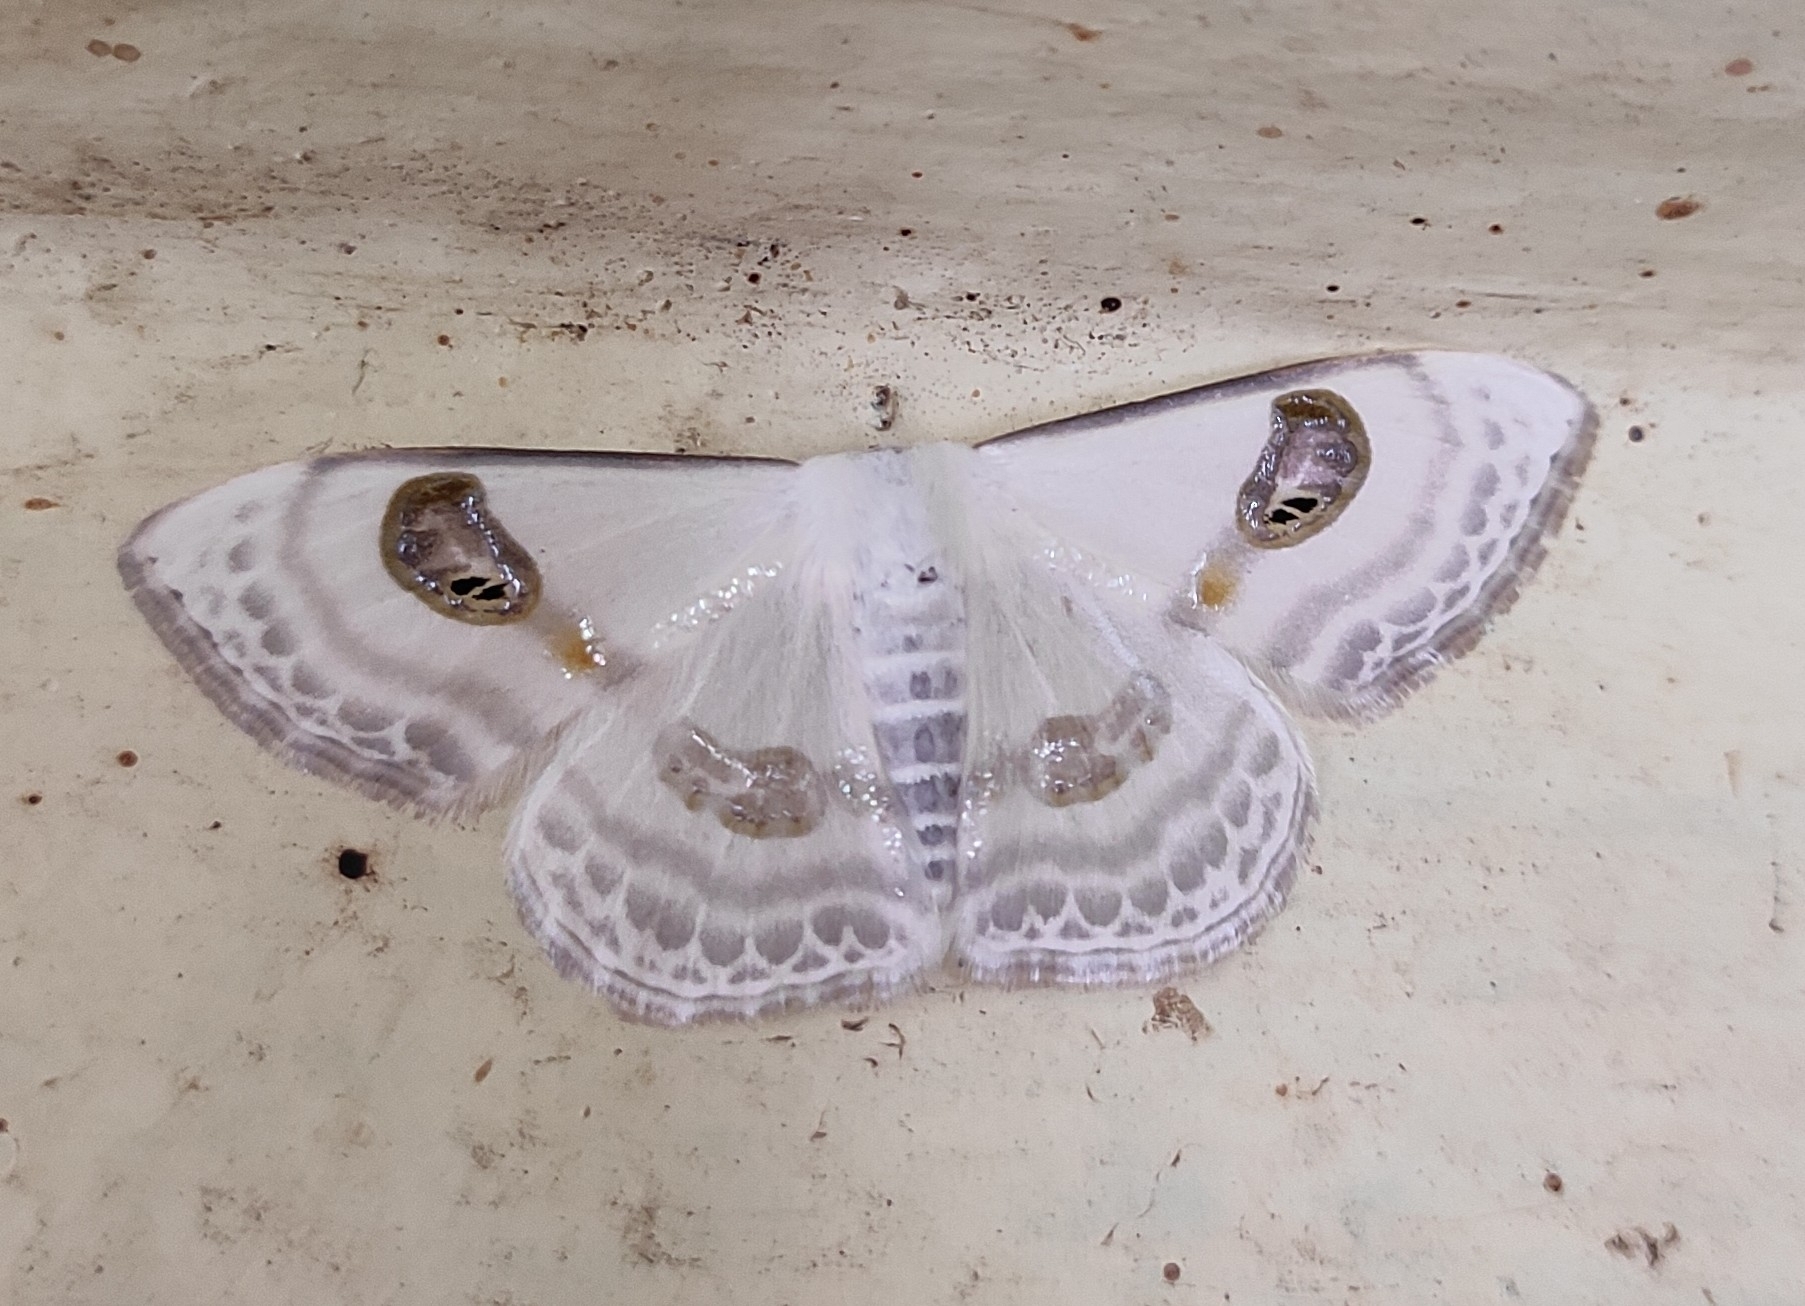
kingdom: Animalia
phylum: Arthropoda
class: Insecta
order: Lepidoptera
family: Geometridae
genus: Problepsis
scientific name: Problepsis deliaria
